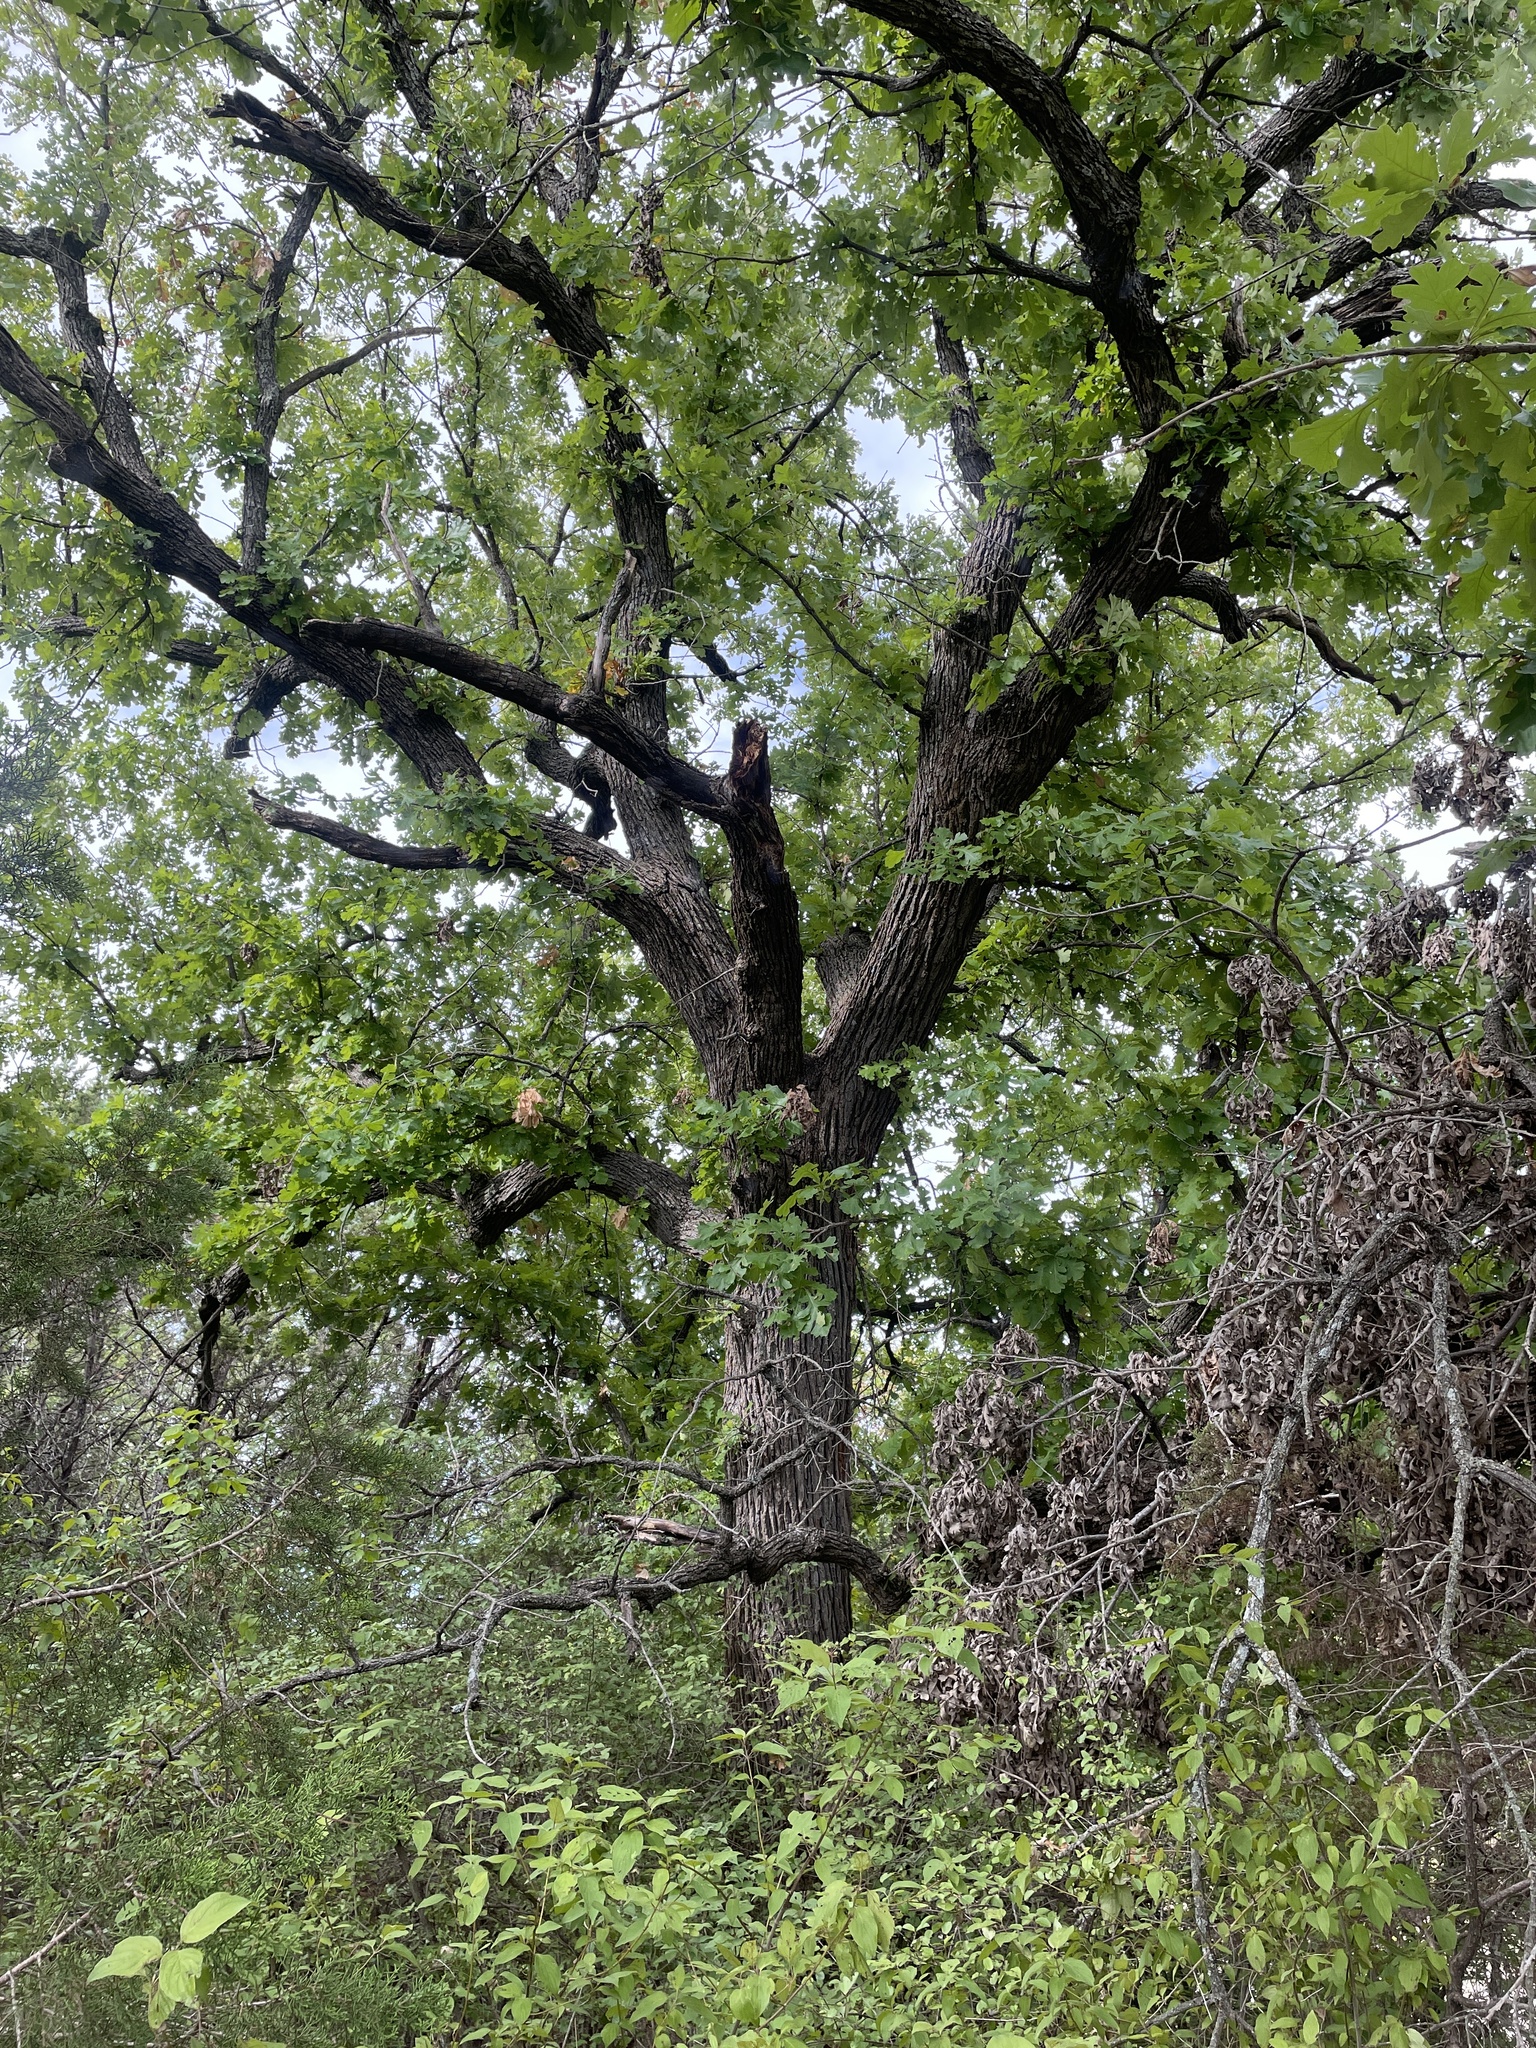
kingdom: Plantae
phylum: Tracheophyta
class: Magnoliopsida
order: Fagales
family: Fagaceae
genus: Quercus
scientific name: Quercus macrocarpa
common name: Bur oak
